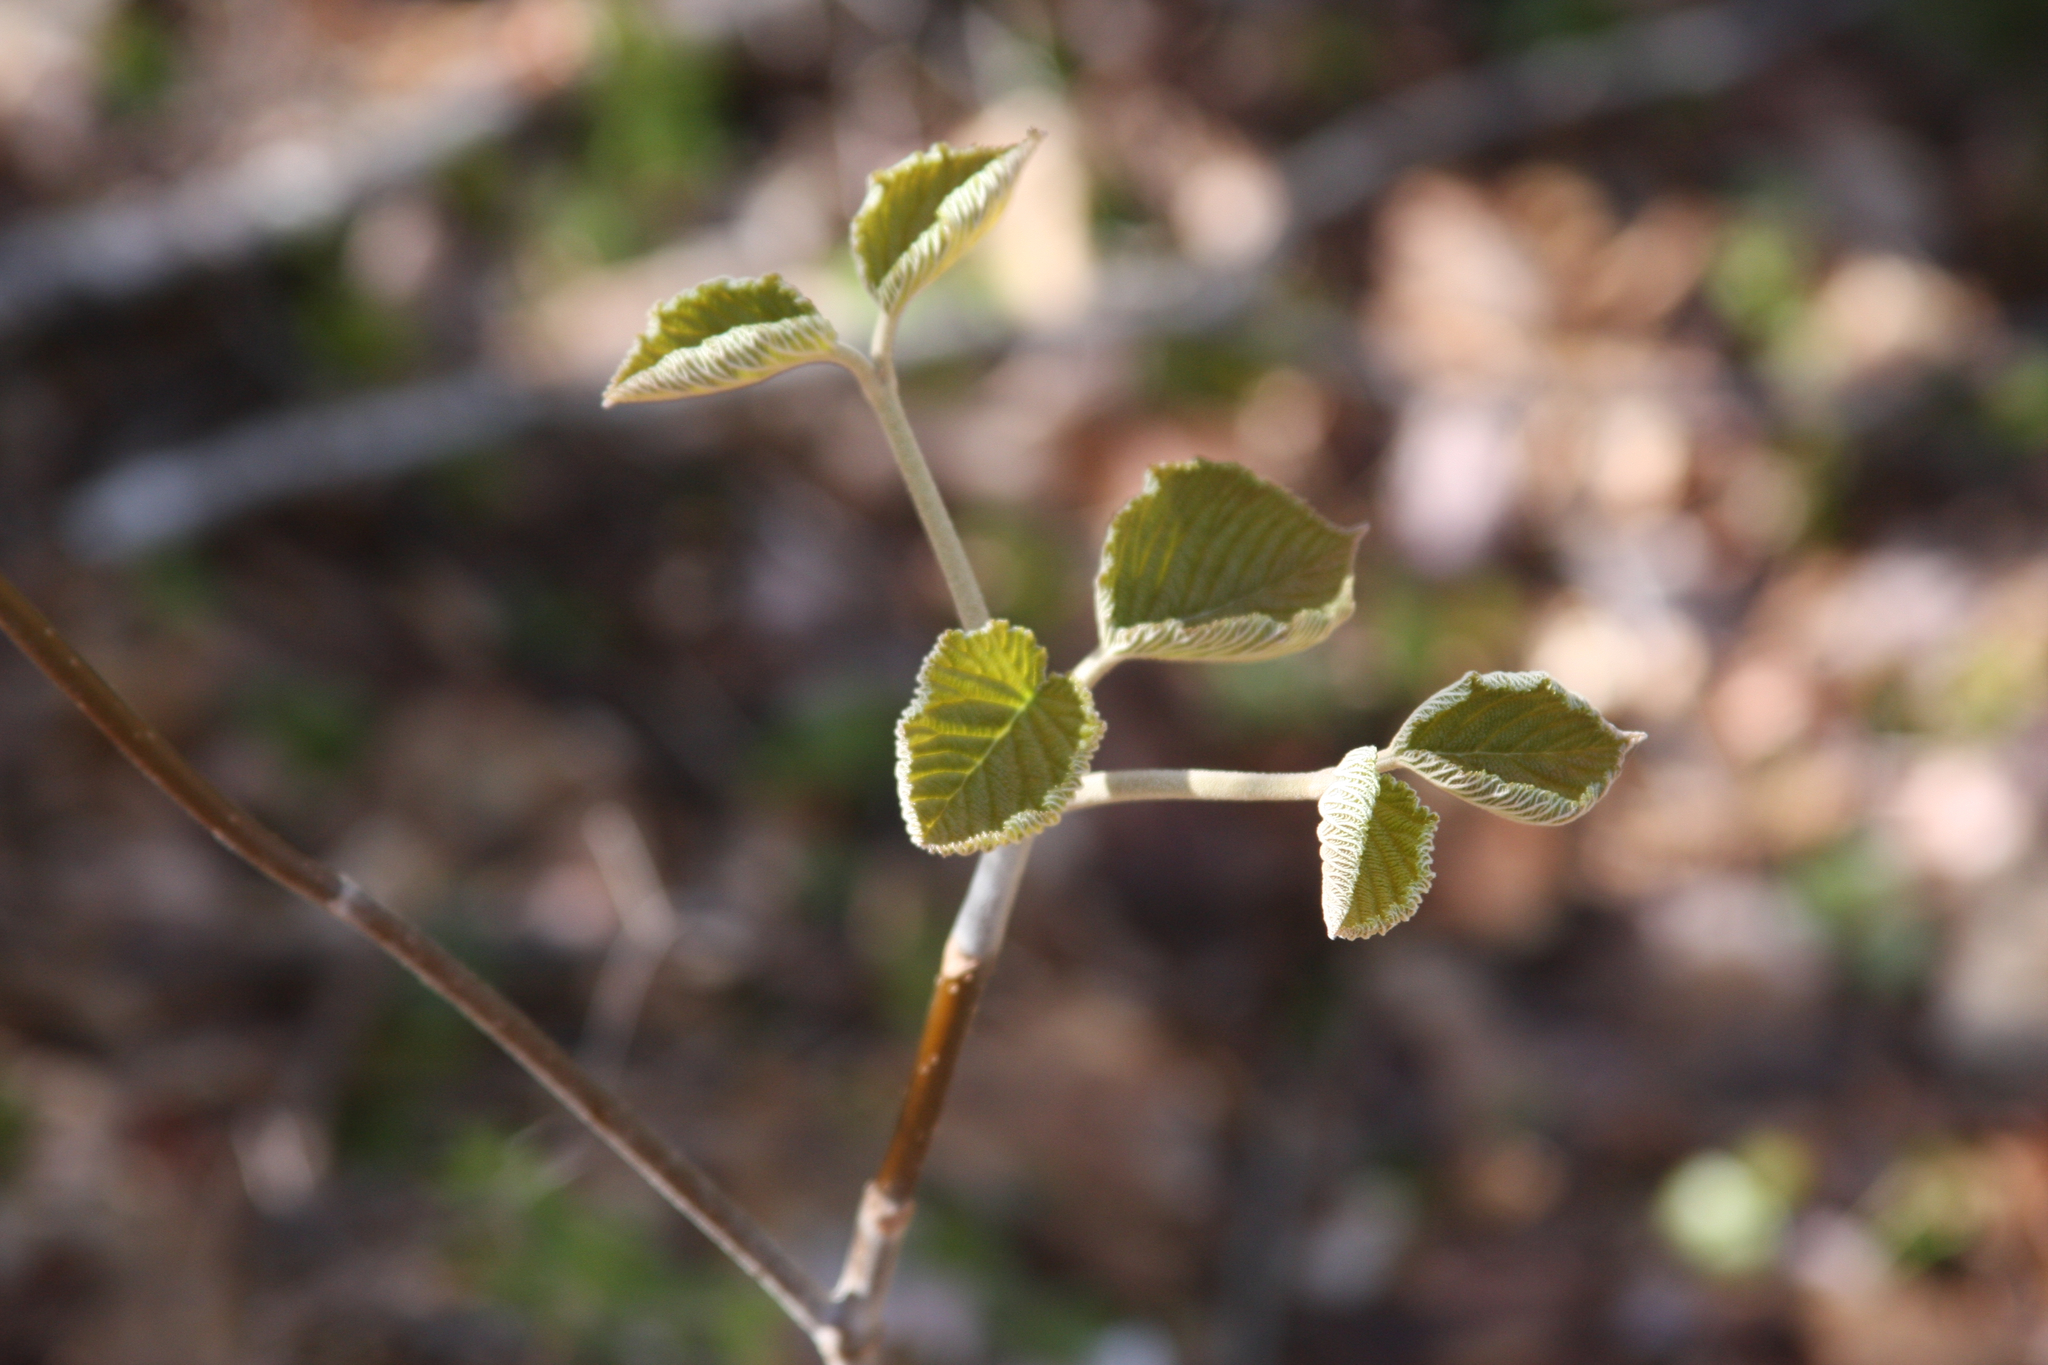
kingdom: Plantae
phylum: Tracheophyta
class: Magnoliopsida
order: Dipsacales
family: Viburnaceae
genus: Viburnum
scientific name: Viburnum lantanoides
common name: Hobblebush
